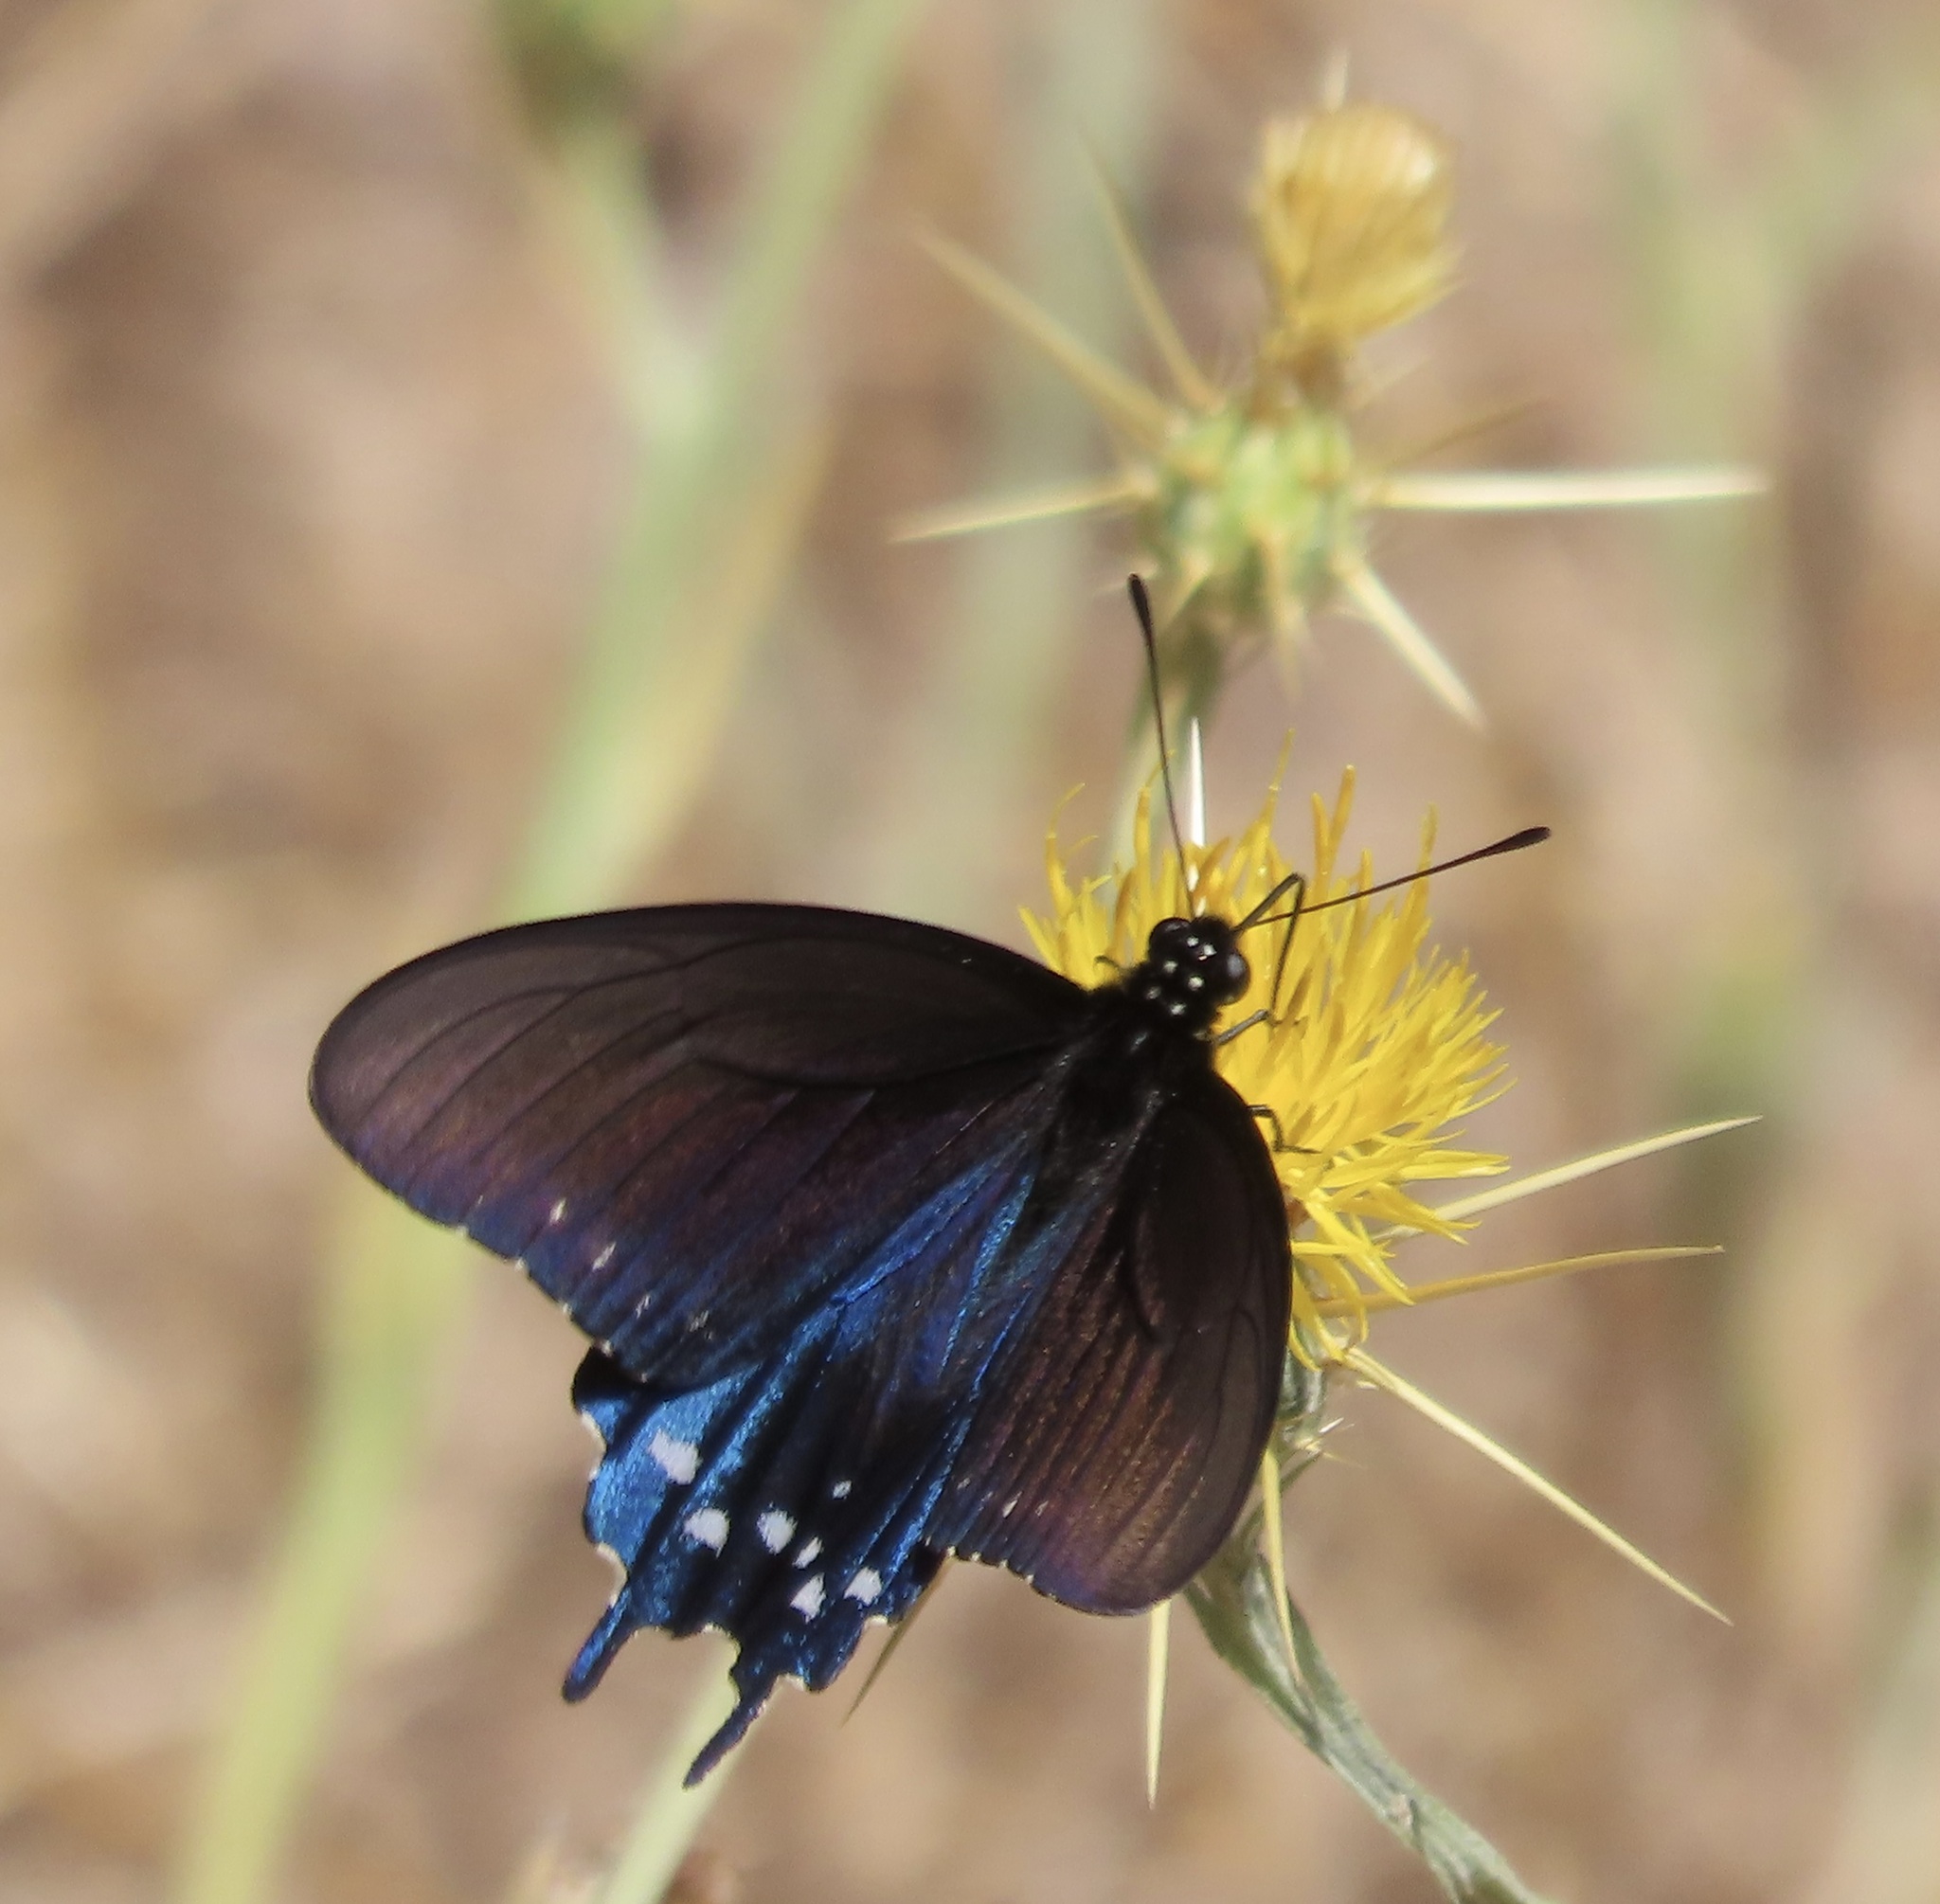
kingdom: Animalia
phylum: Arthropoda
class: Insecta
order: Lepidoptera
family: Papilionidae
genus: Battus
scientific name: Battus philenor
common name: Pipevine swallowtail
